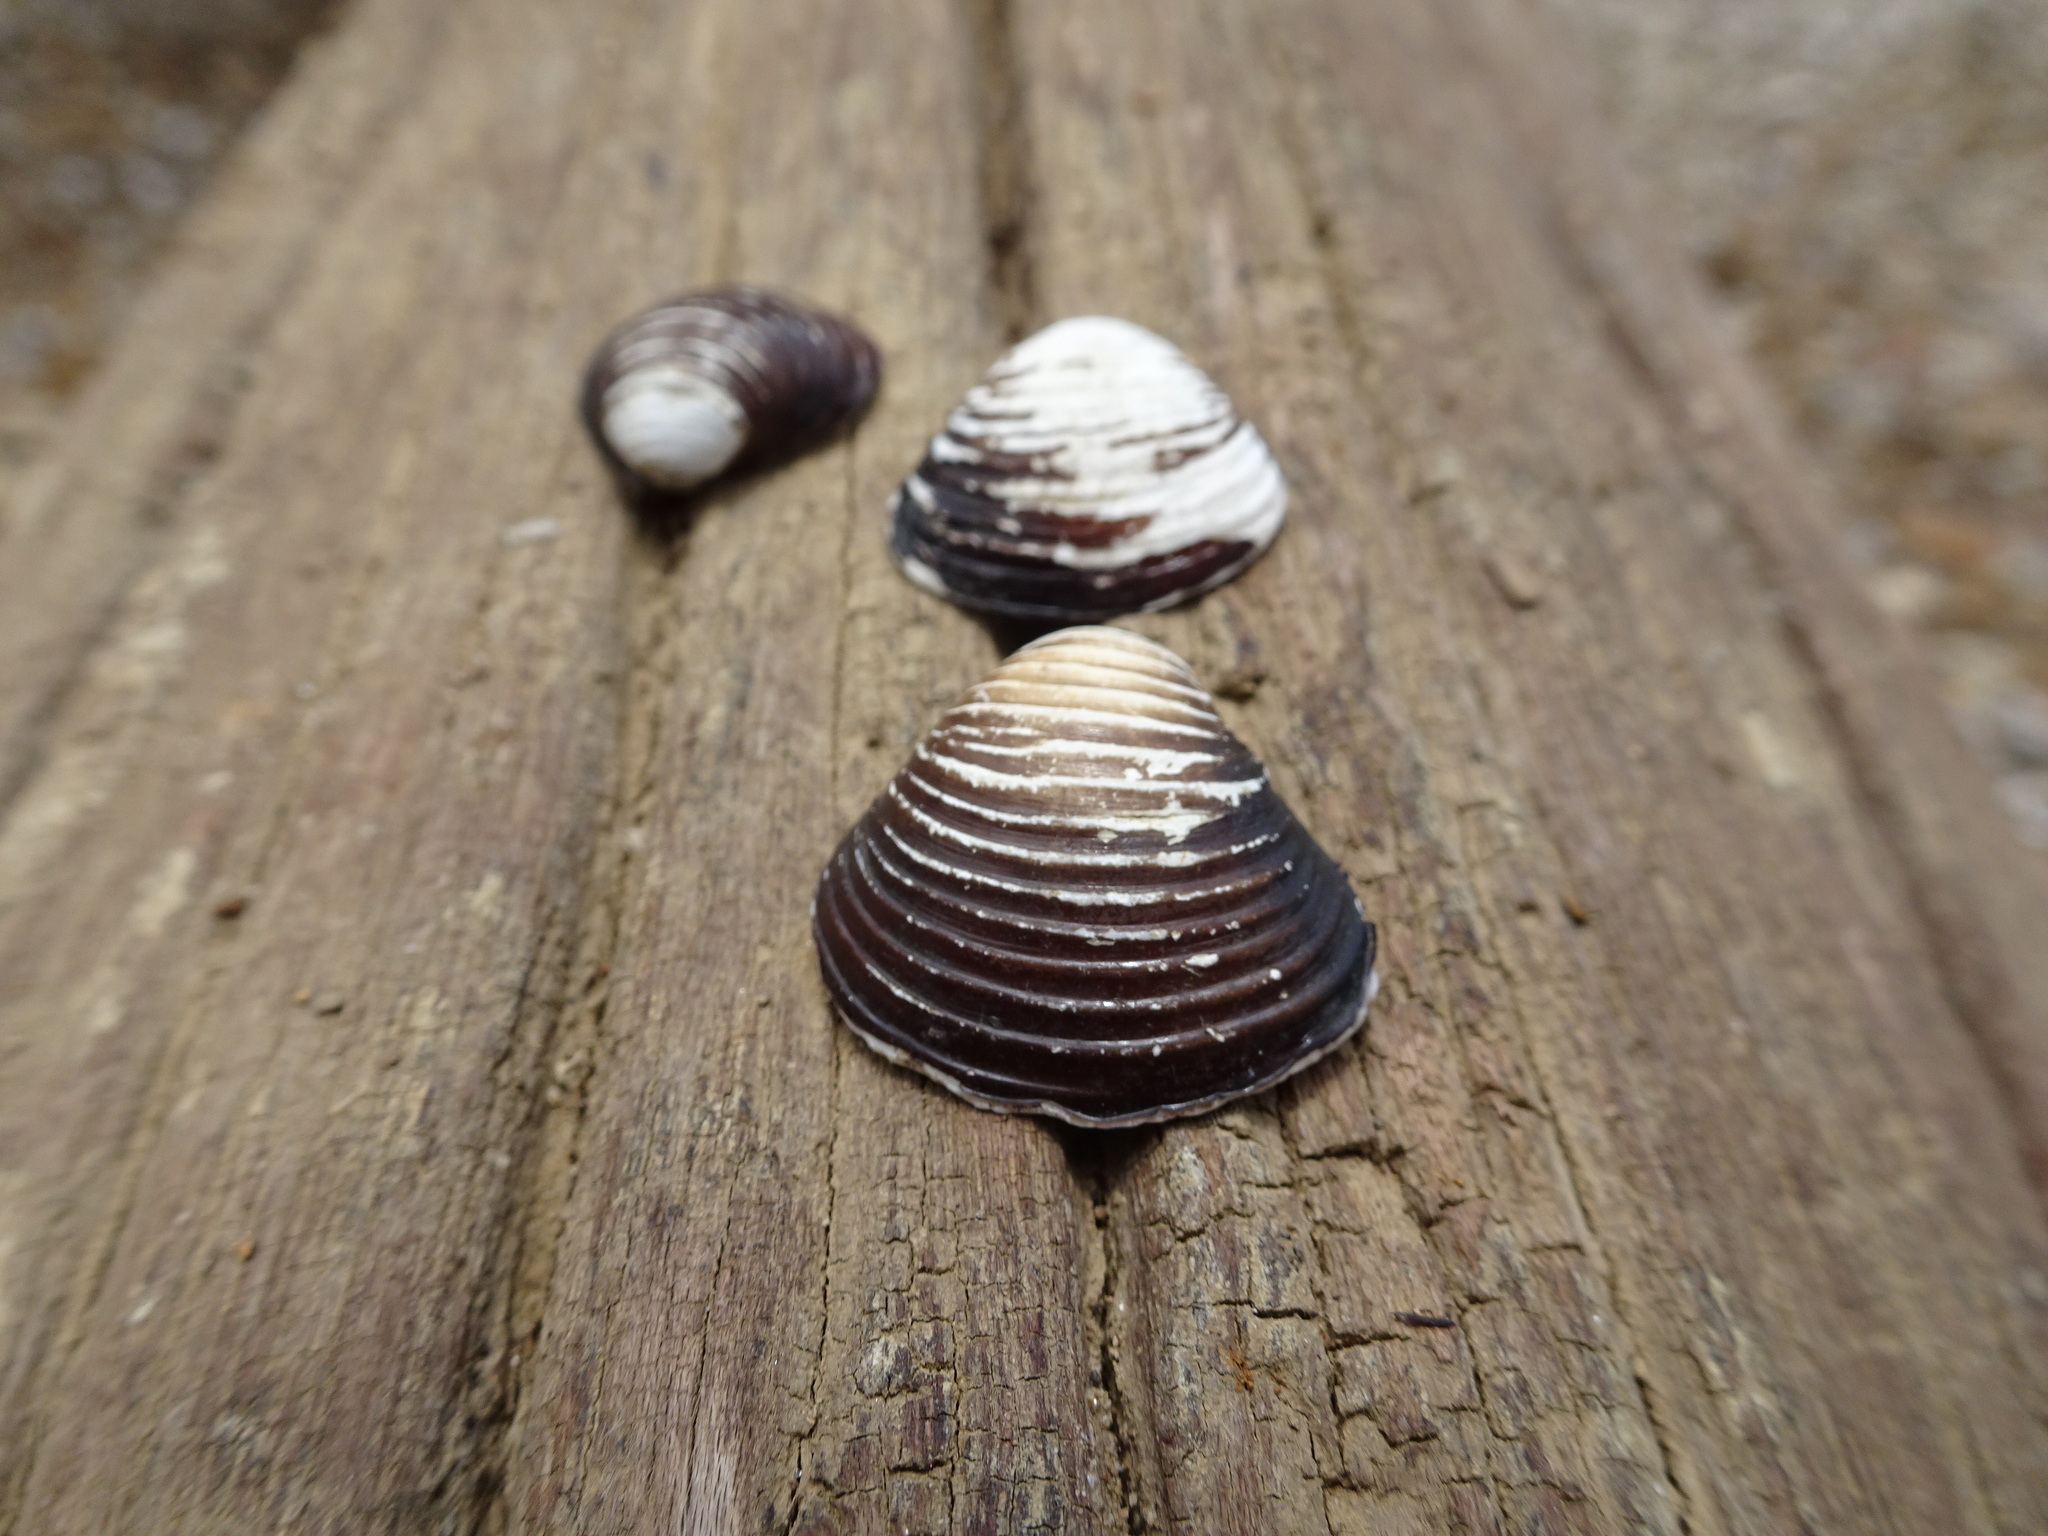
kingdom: Animalia
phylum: Mollusca
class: Bivalvia
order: Venerida
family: Cyrenidae
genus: Corbicula
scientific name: Corbicula fluminea
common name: Asian clam
